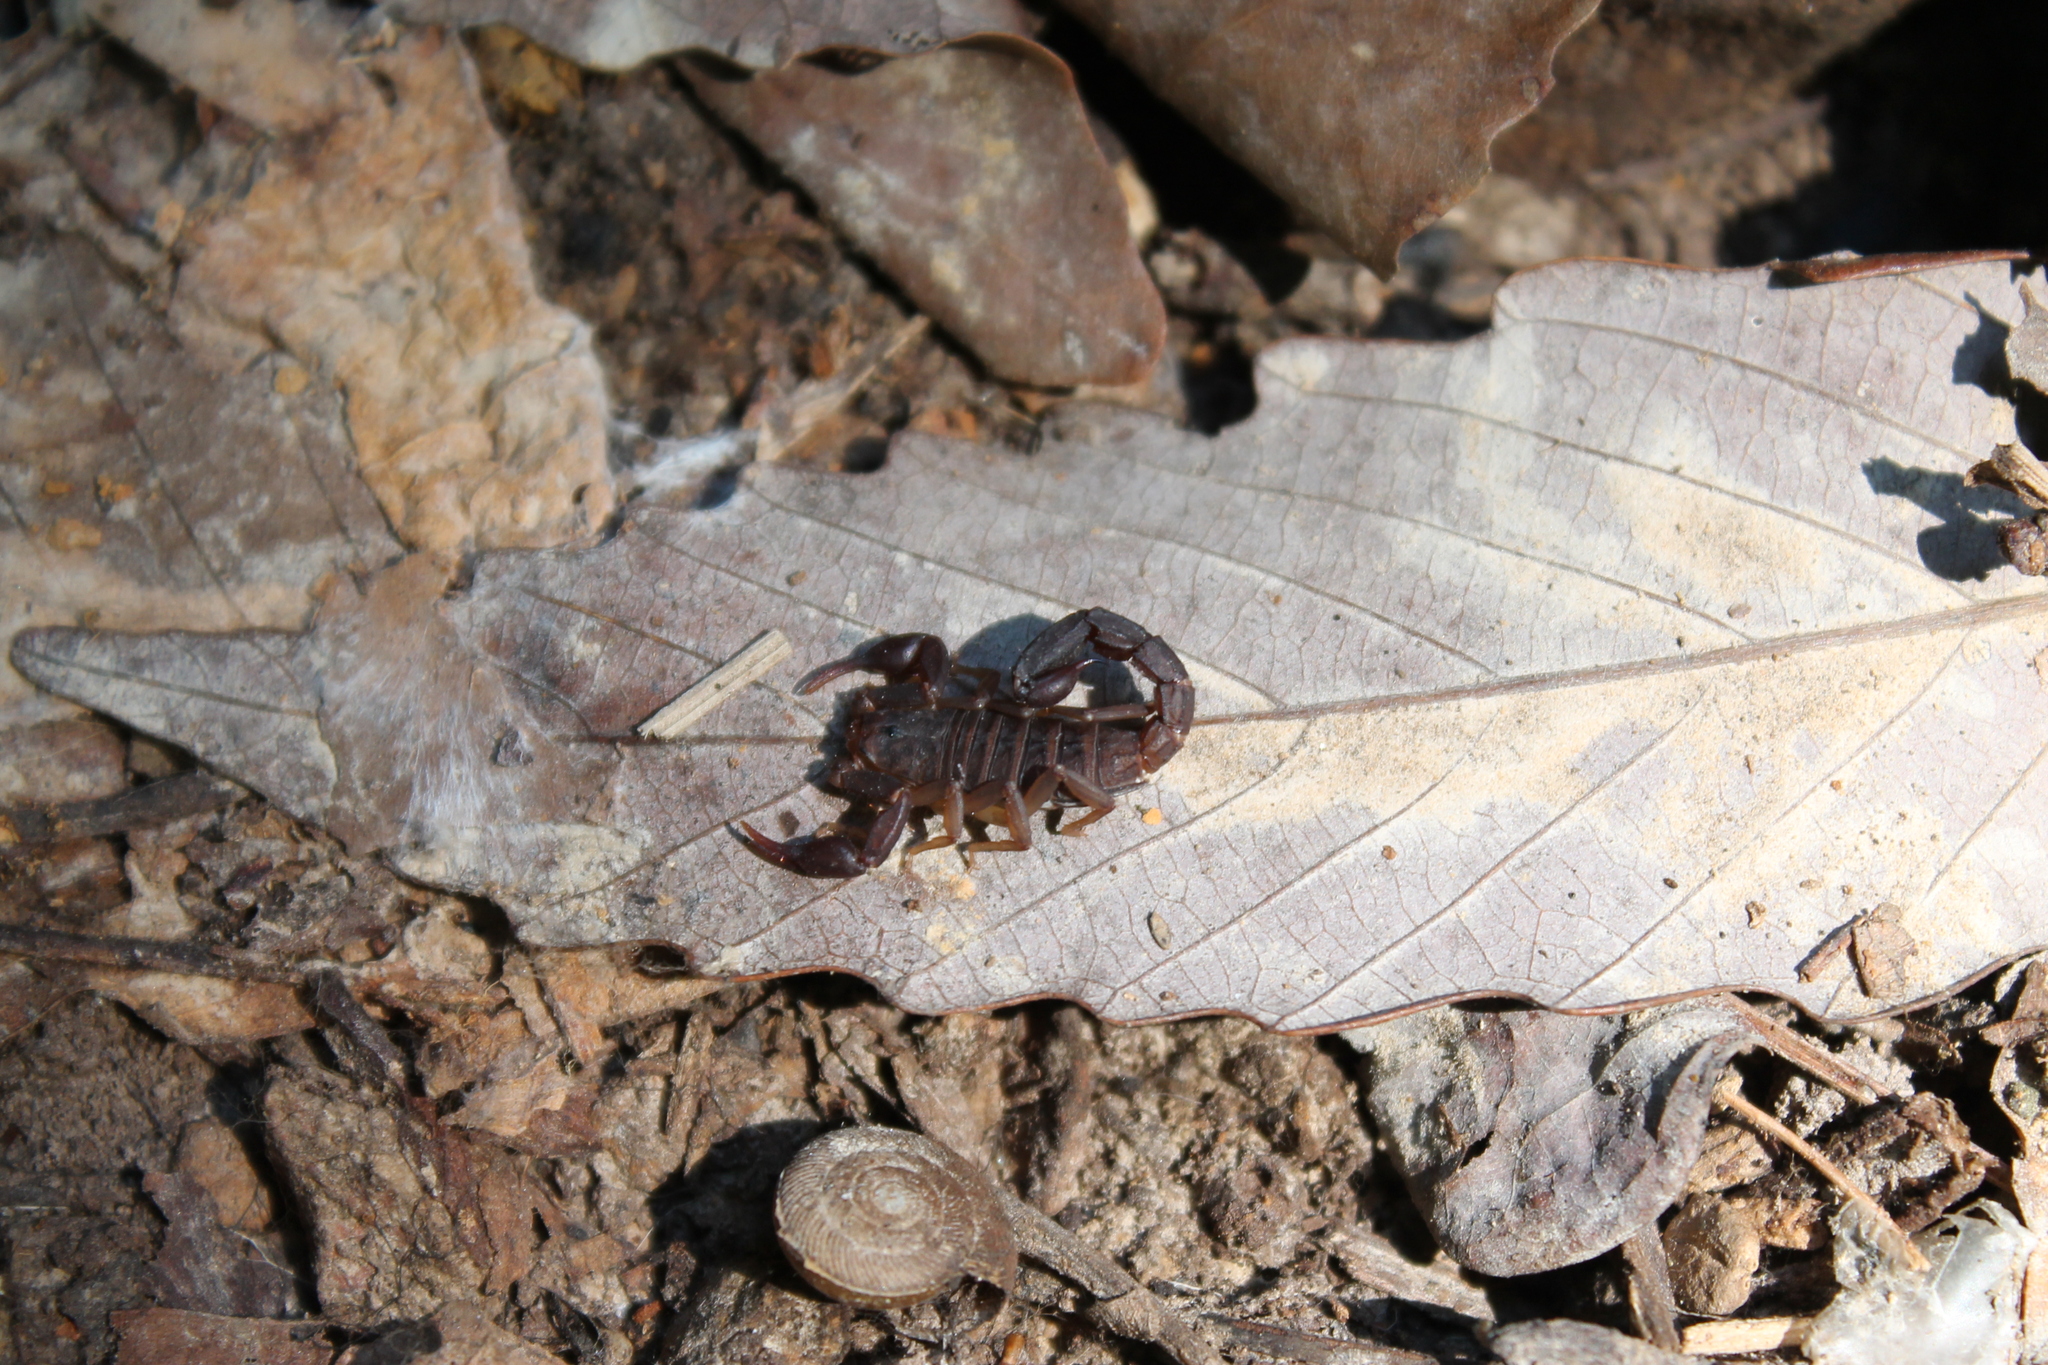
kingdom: Animalia
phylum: Arthropoda
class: Arachnida
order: Scorpiones
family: Vaejovidae
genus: Vaejovis
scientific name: Vaejovis carolinianus
